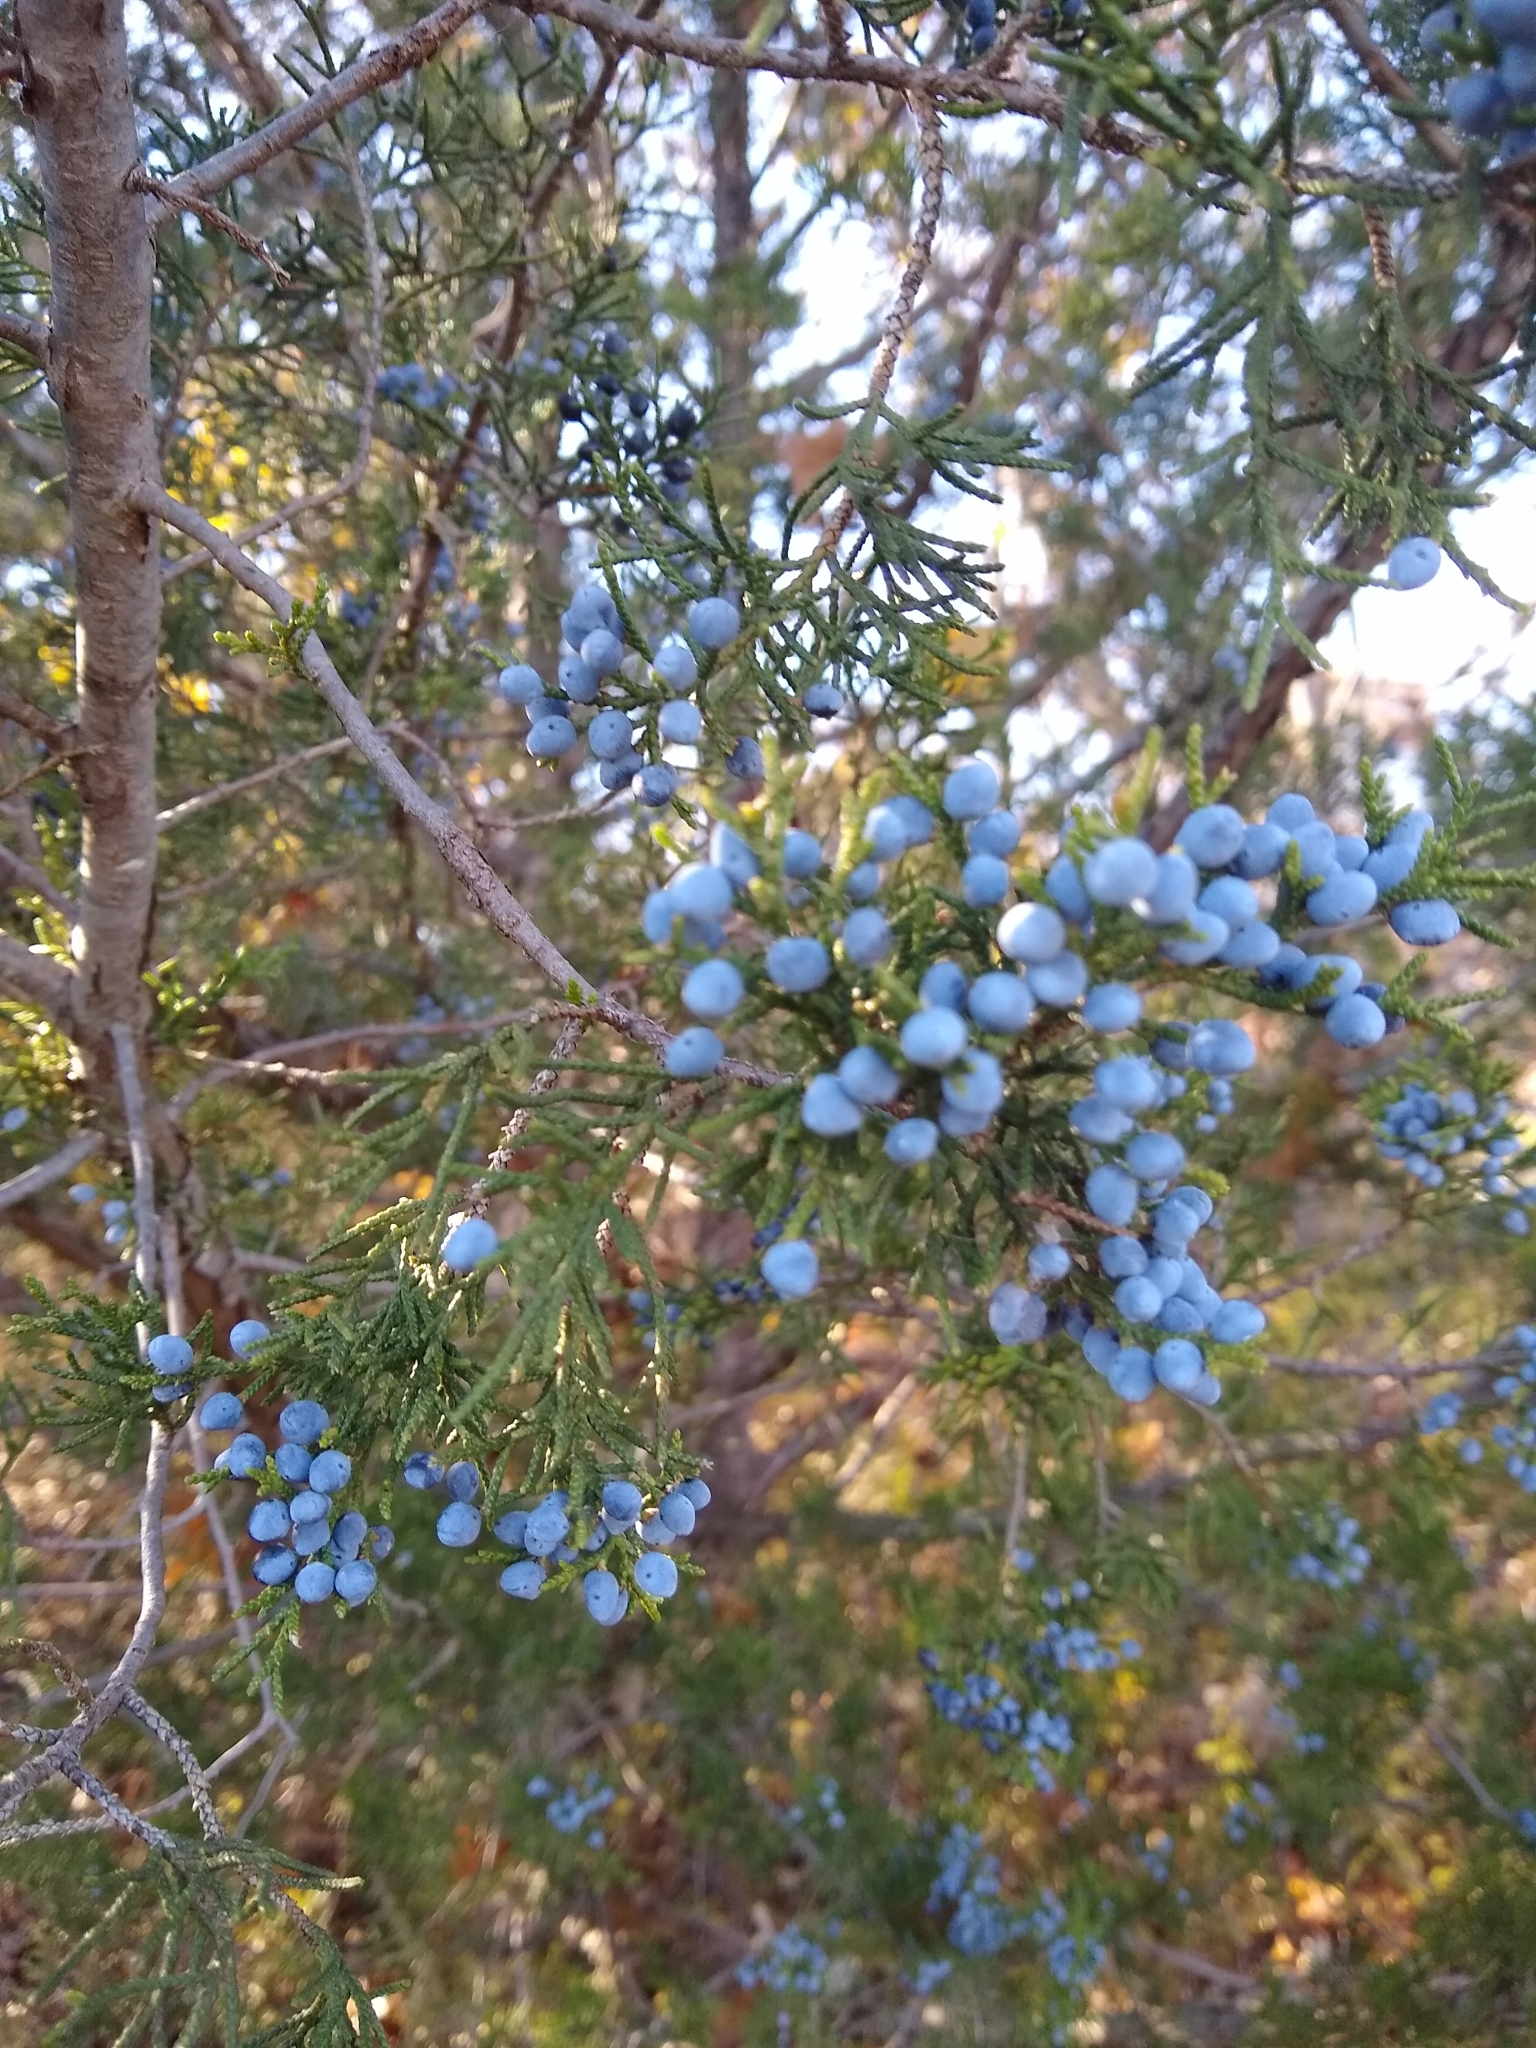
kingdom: Plantae
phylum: Tracheophyta
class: Pinopsida
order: Pinales
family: Cupressaceae
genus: Juniperus
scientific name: Juniperus virginiana
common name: Red juniper
